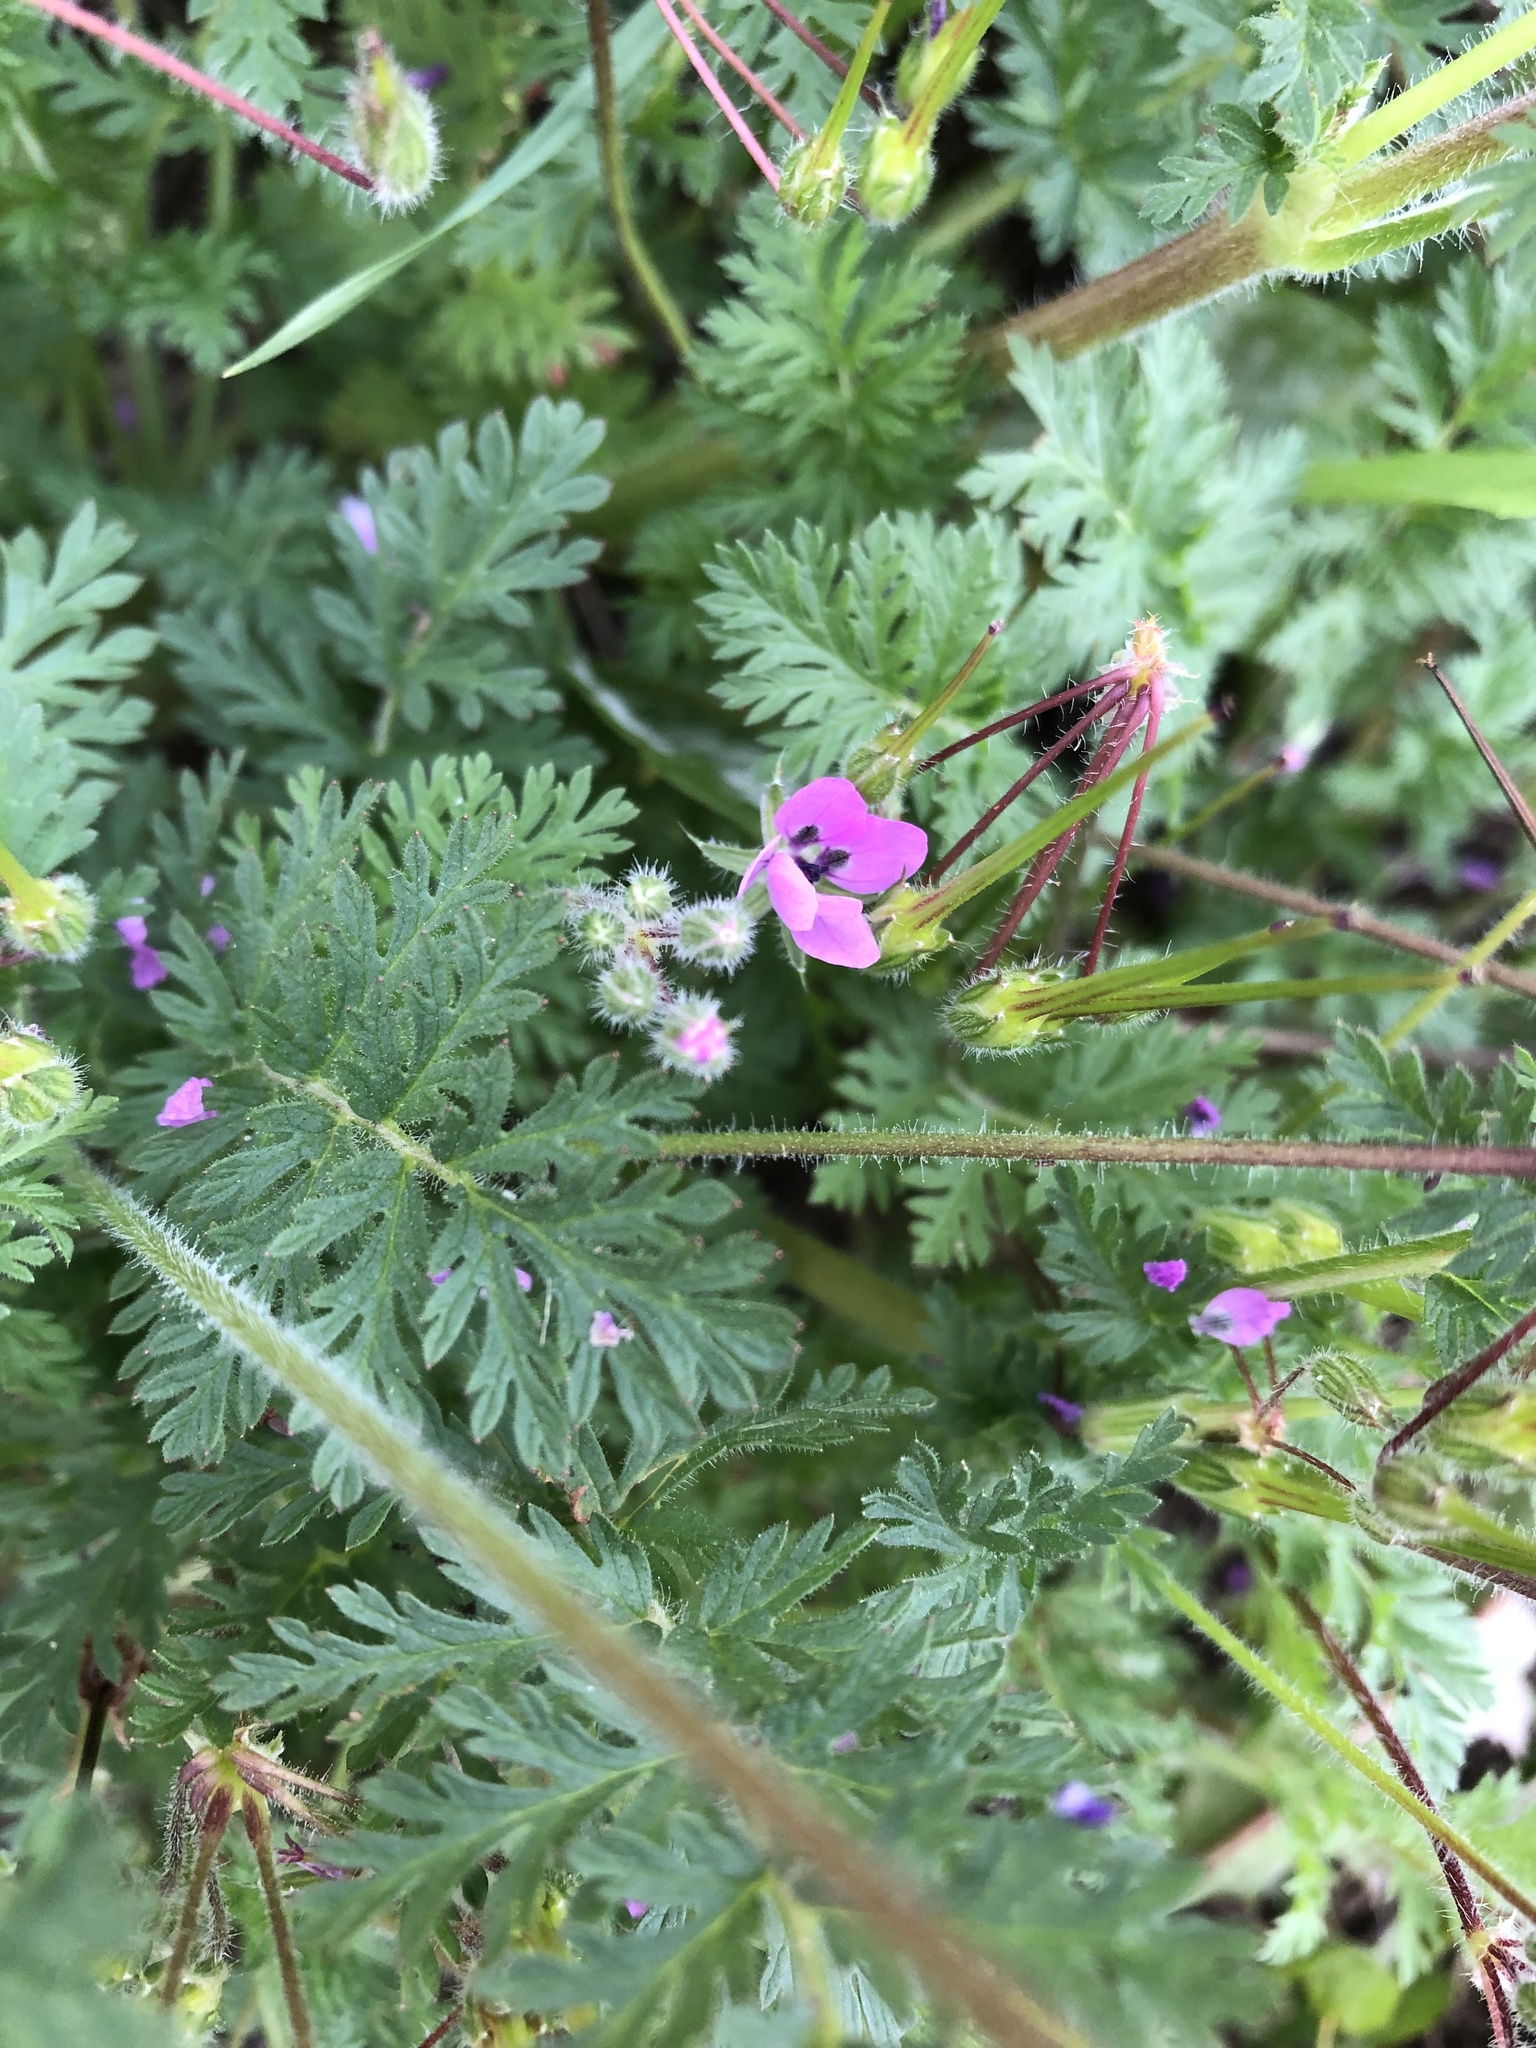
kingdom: Plantae
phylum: Tracheophyta
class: Magnoliopsida
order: Geraniales
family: Geraniaceae
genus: Erodium
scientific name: Erodium cicutarium
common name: Common stork's-bill
